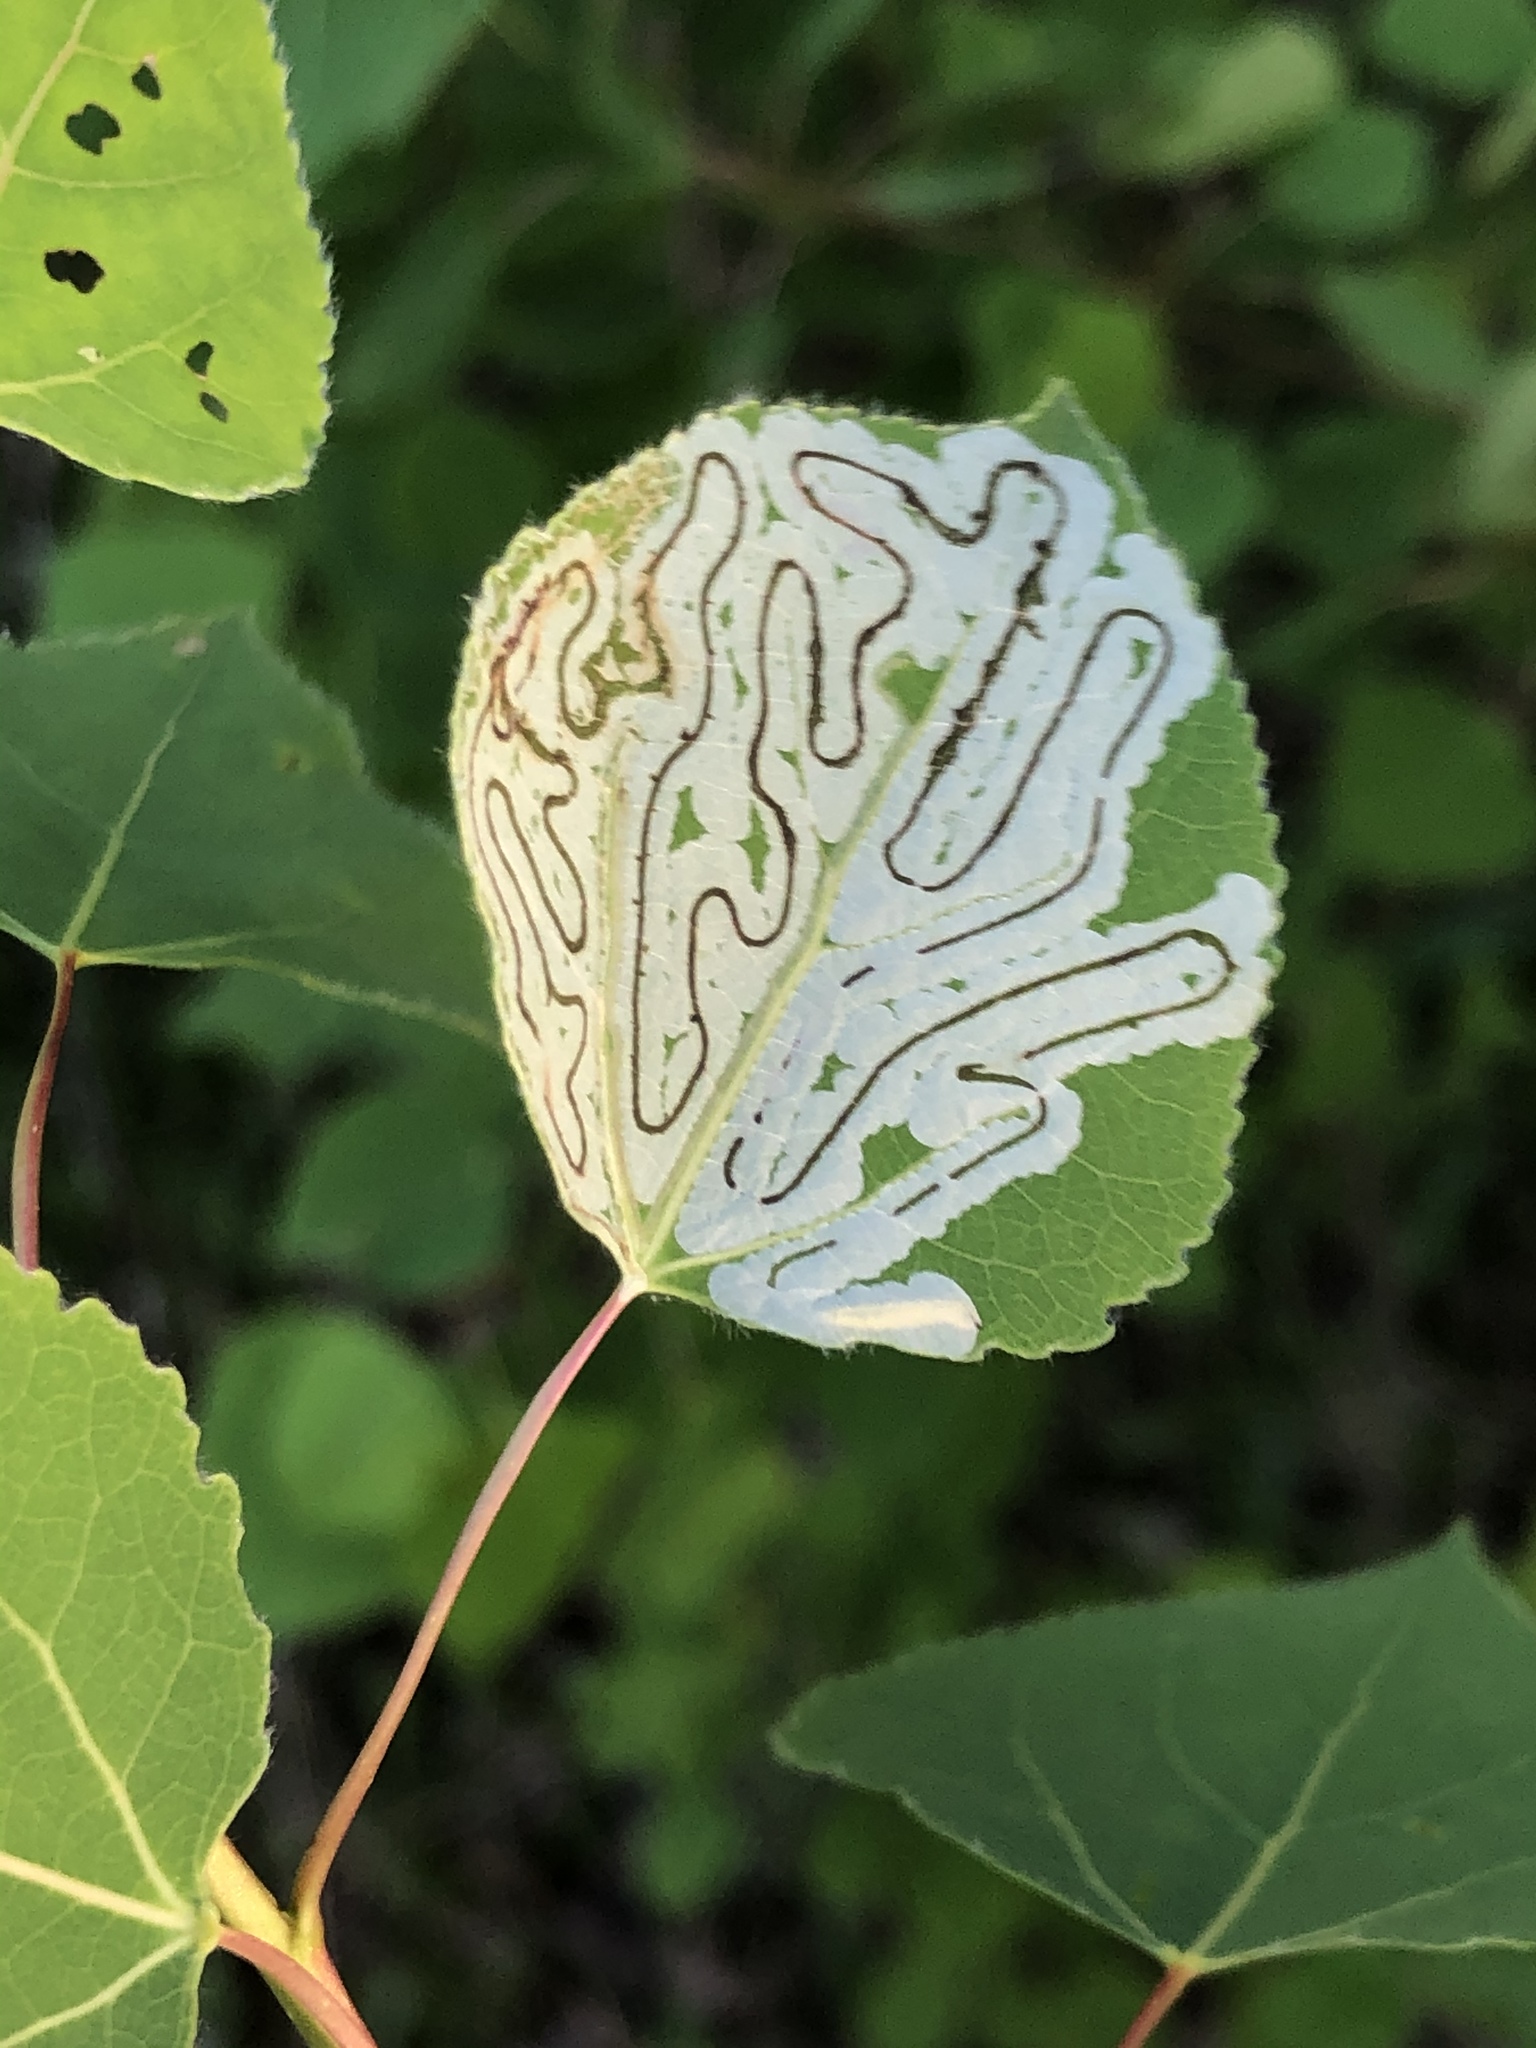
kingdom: Animalia
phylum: Arthropoda
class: Insecta
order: Lepidoptera
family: Gracillariidae
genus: Phyllocnistis
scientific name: Phyllocnistis populiella
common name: Aspen serpentine leafminer moth
